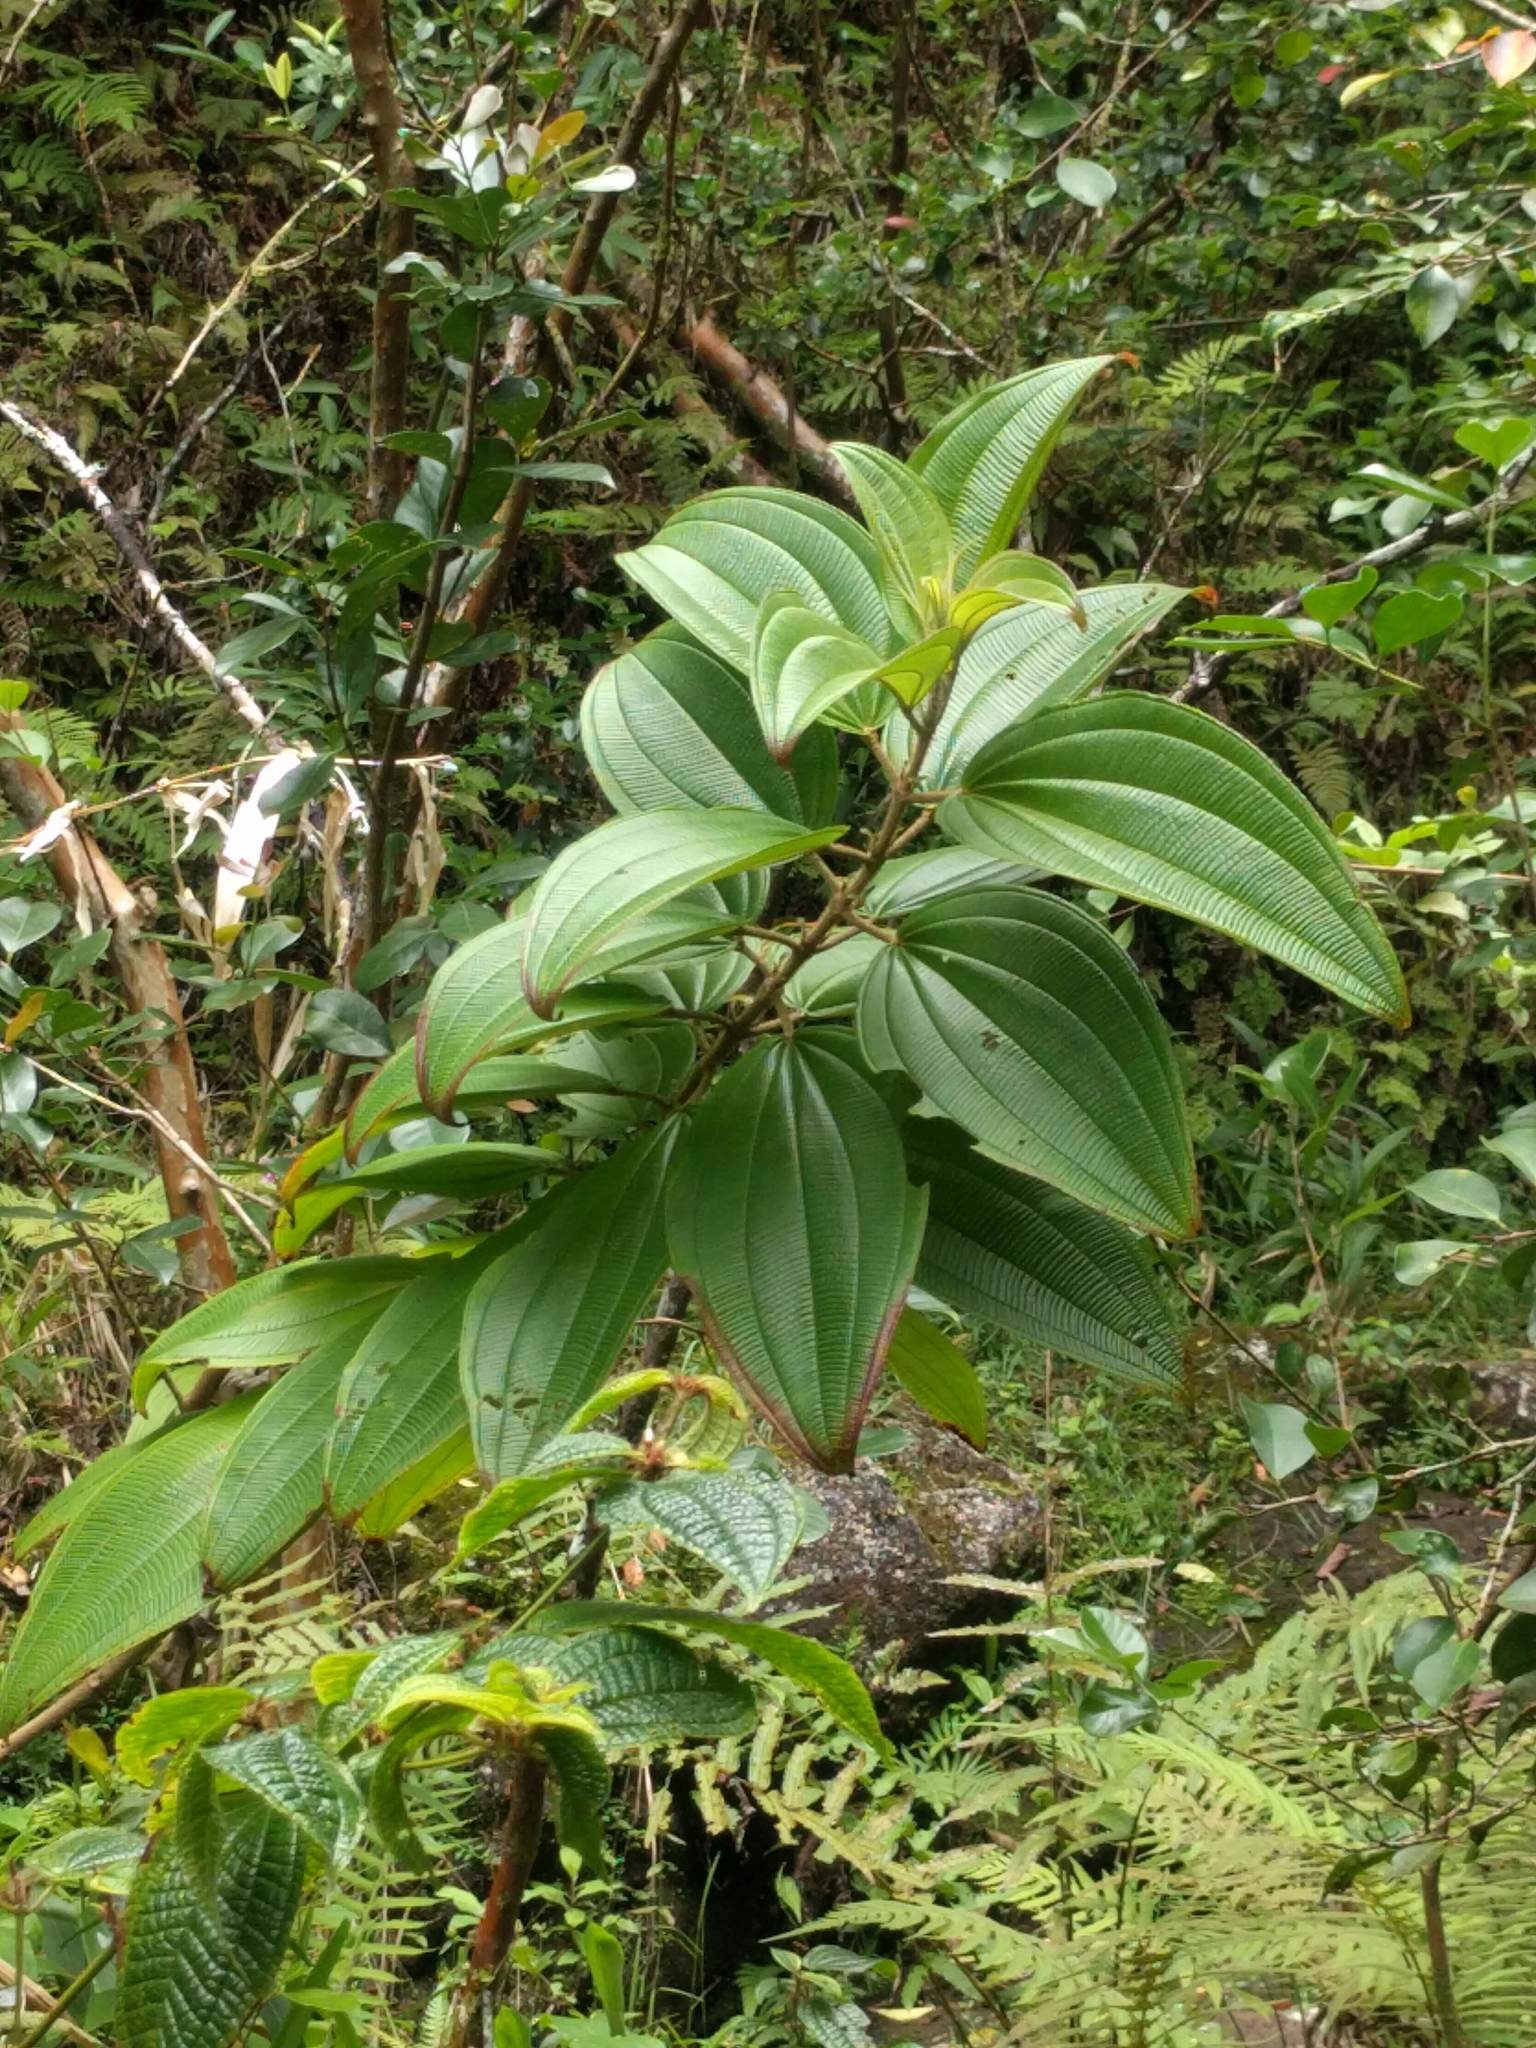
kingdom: Plantae
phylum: Tracheophyta
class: Magnoliopsida
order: Myrtales
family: Melastomataceae
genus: Oxyspora
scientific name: Oxyspora paniculata
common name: Bristletips
